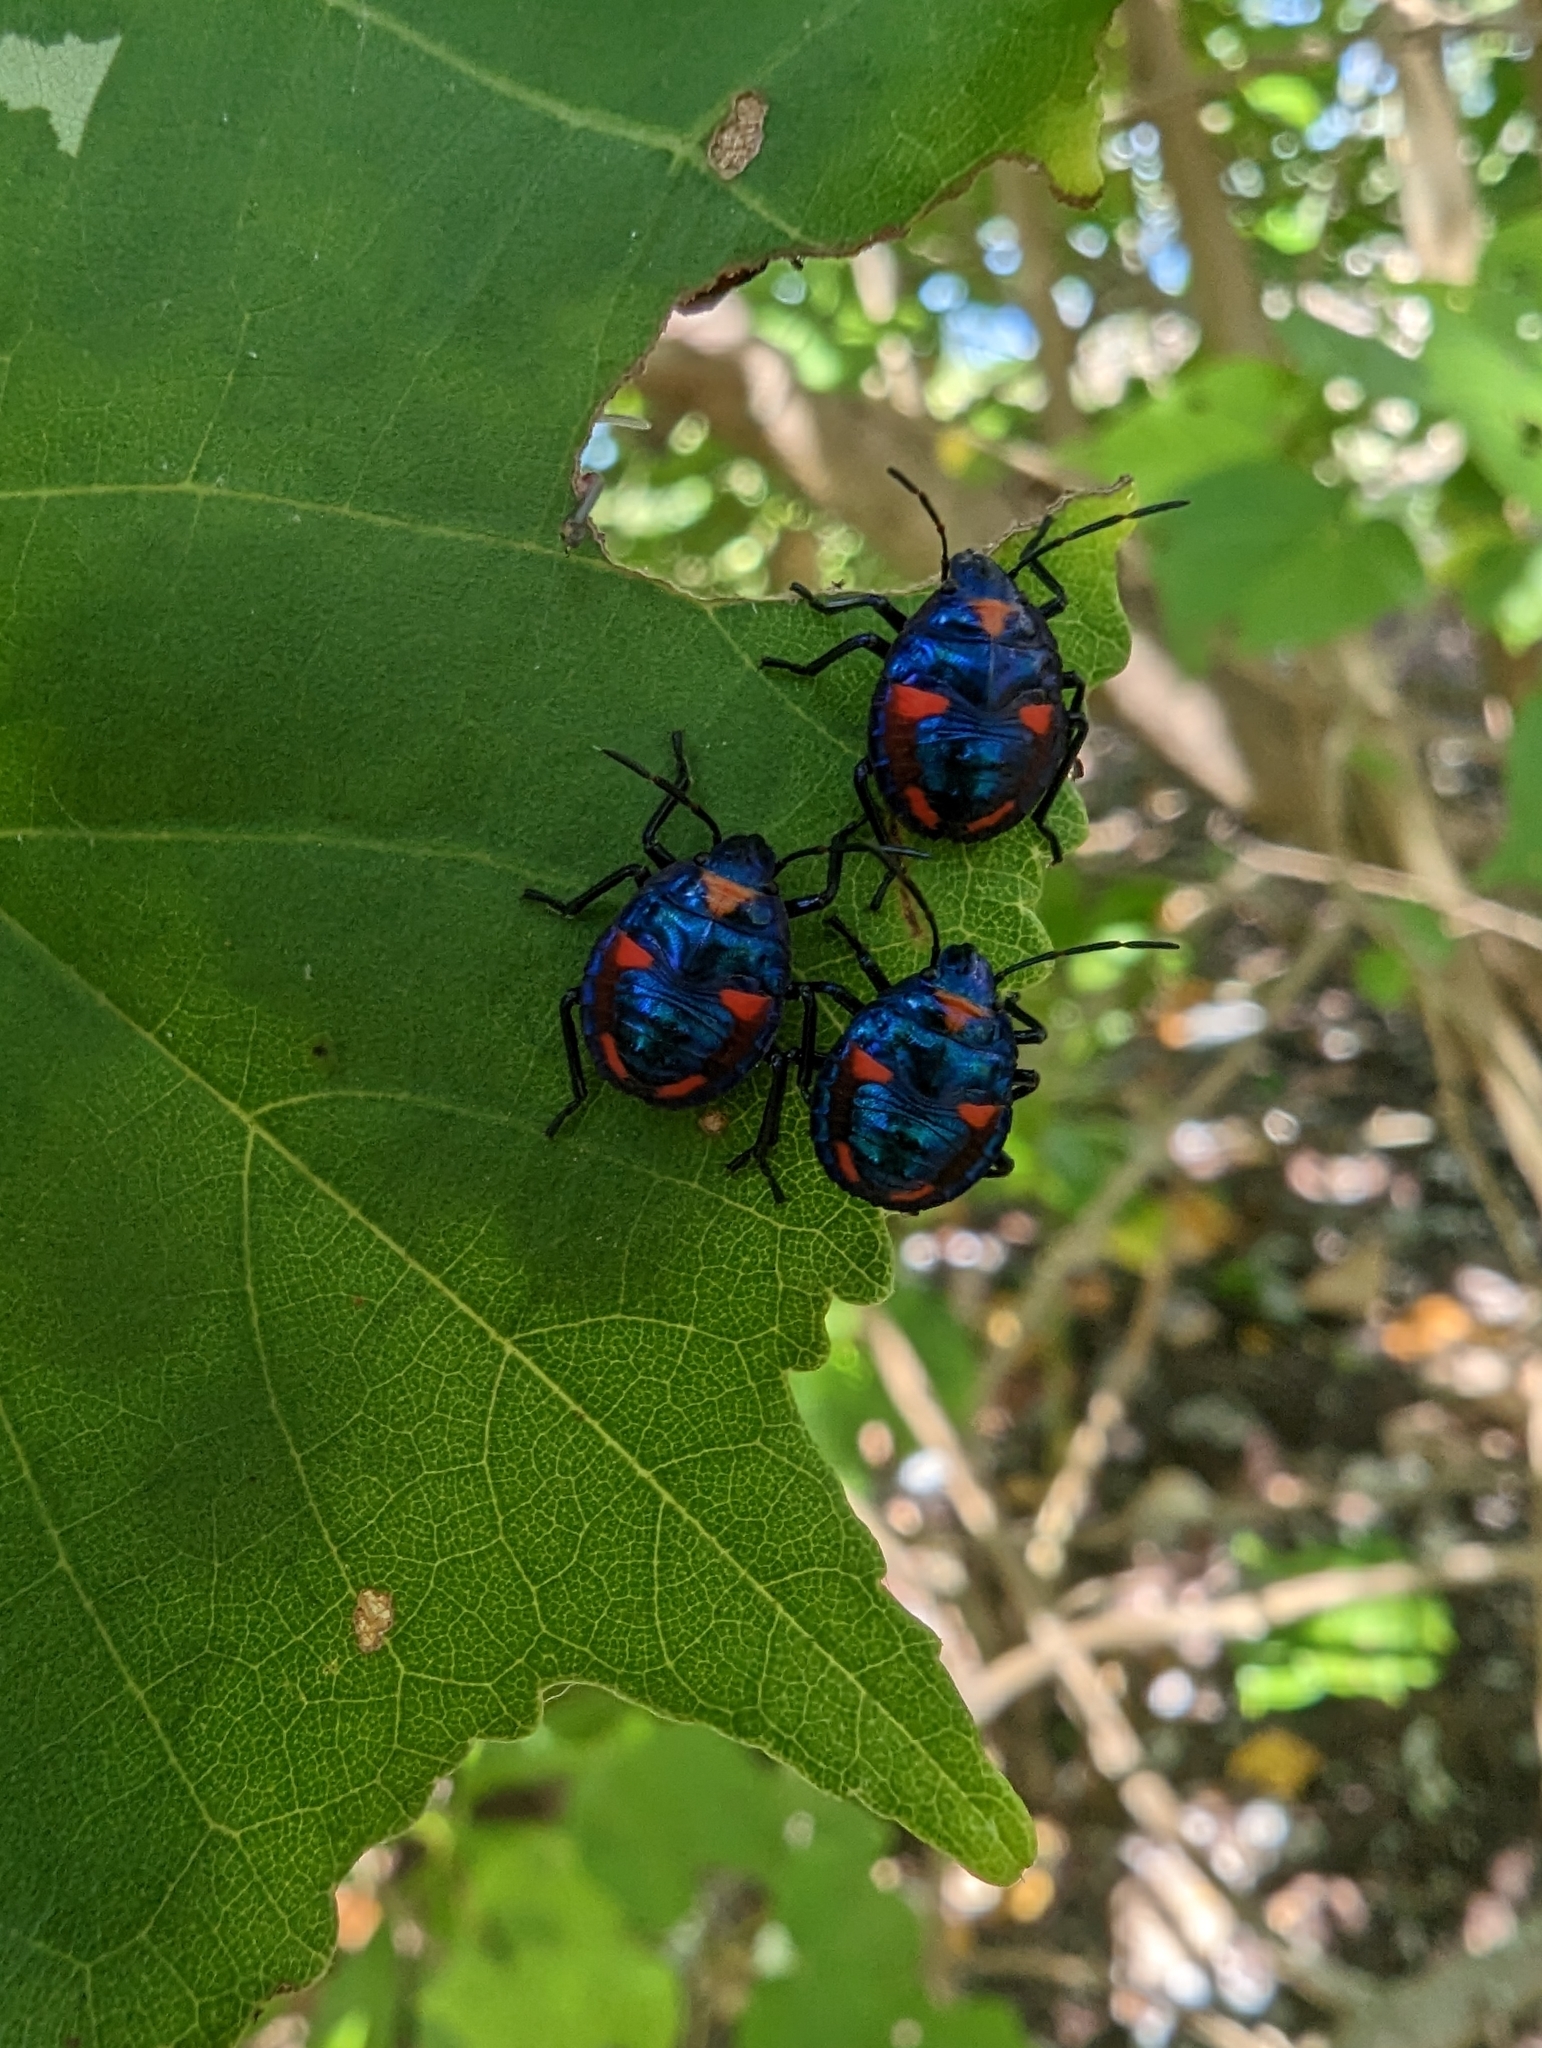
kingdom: Animalia
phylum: Arthropoda
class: Insecta
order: Hemiptera
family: Scutelleridae
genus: Tectocoris
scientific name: Tectocoris diophthalmus
